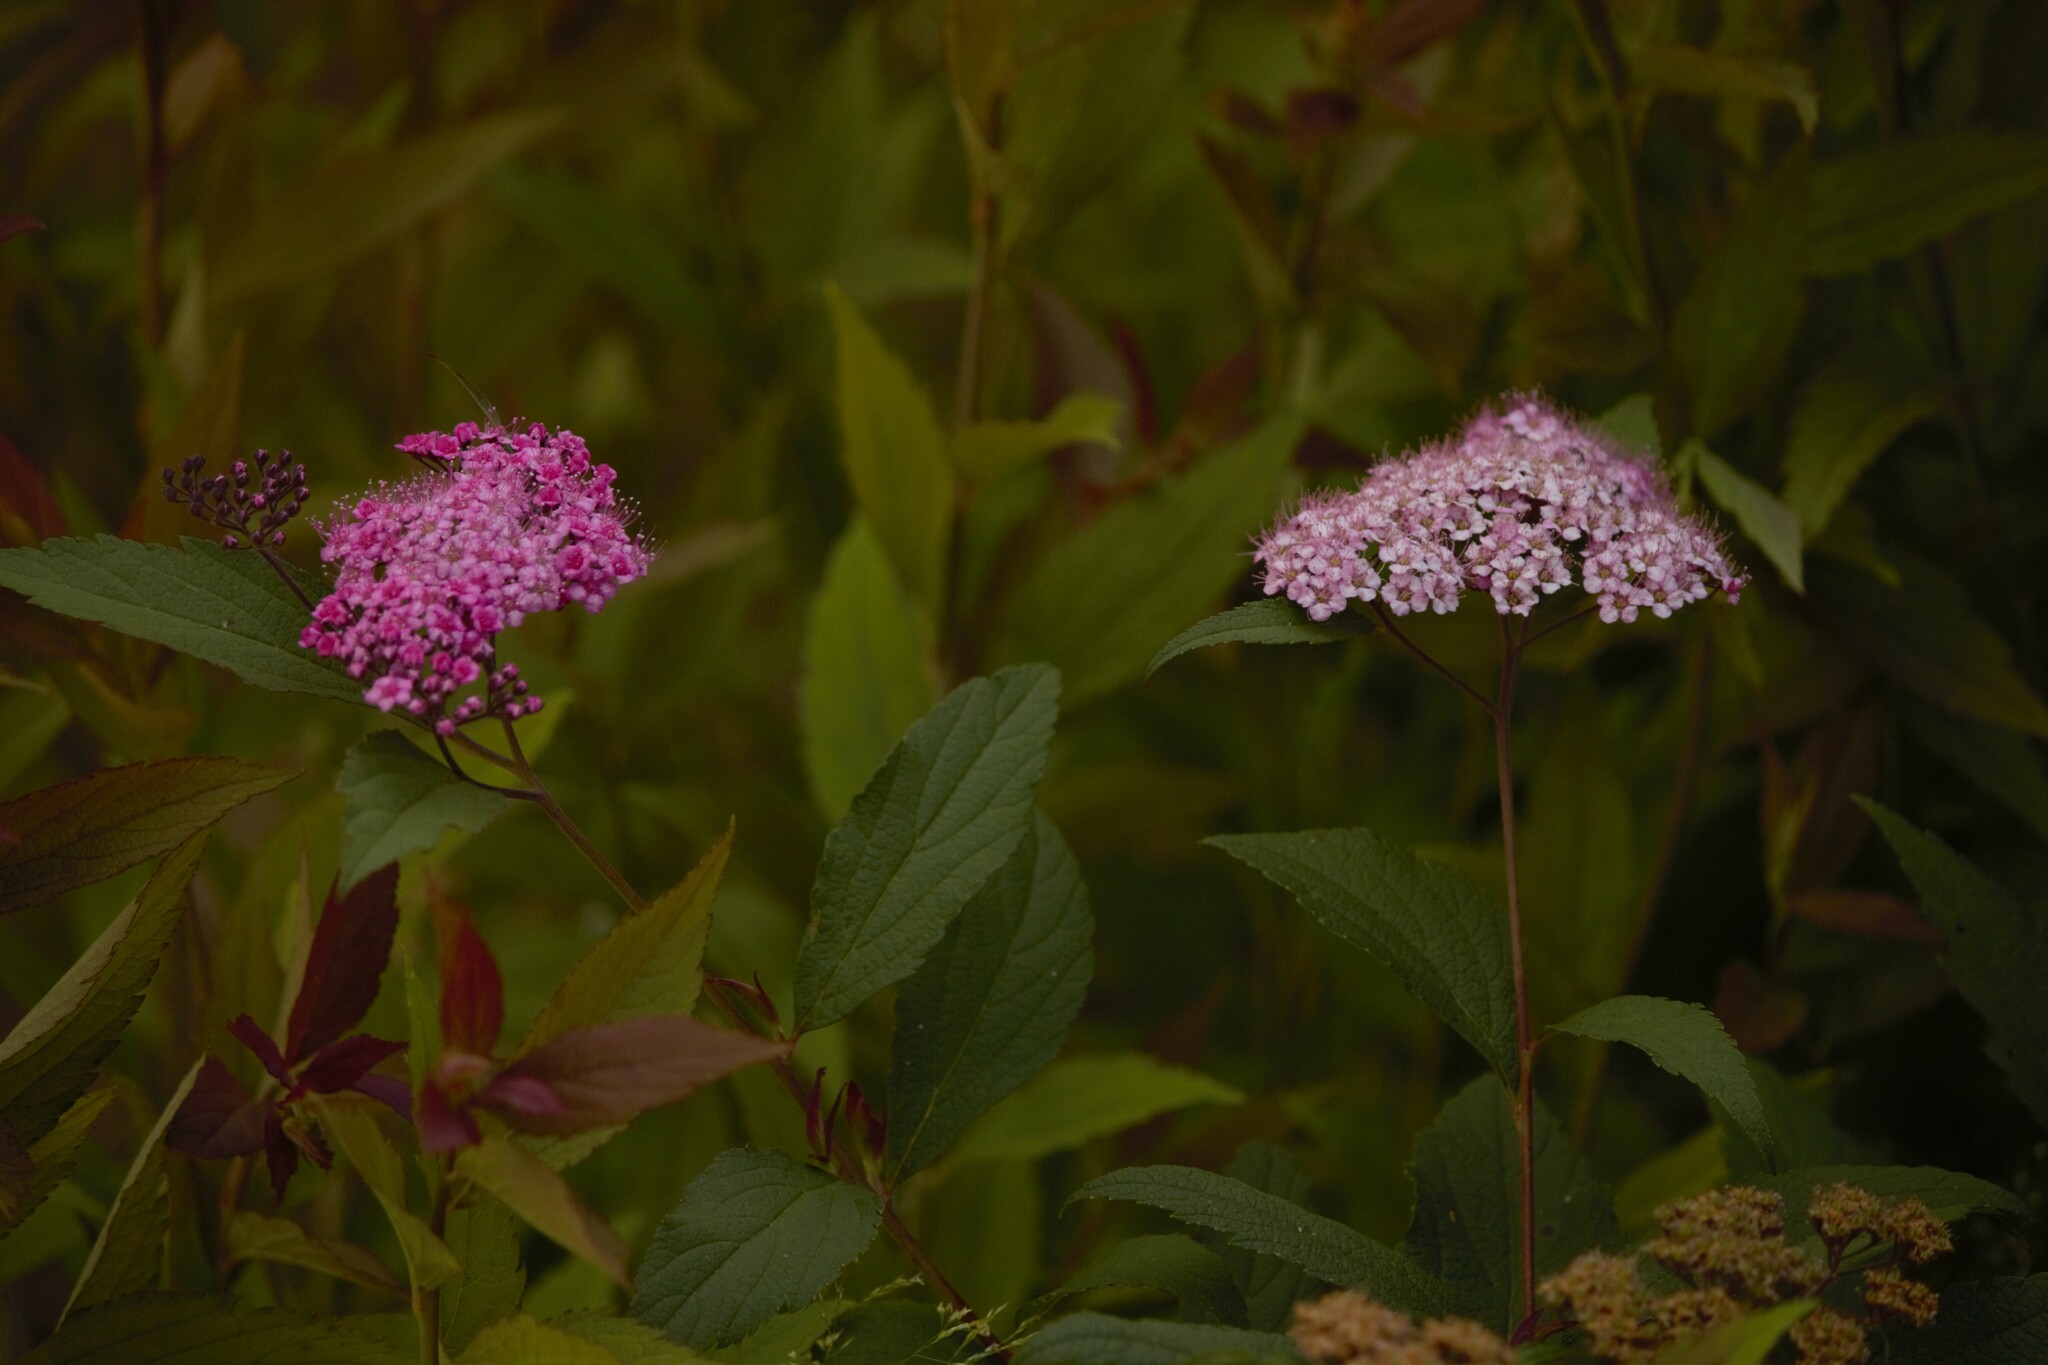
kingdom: Plantae
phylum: Tracheophyta
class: Magnoliopsida
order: Rosales
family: Rosaceae
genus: Spiraea
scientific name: Spiraea japonica
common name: Japanese spiraea
